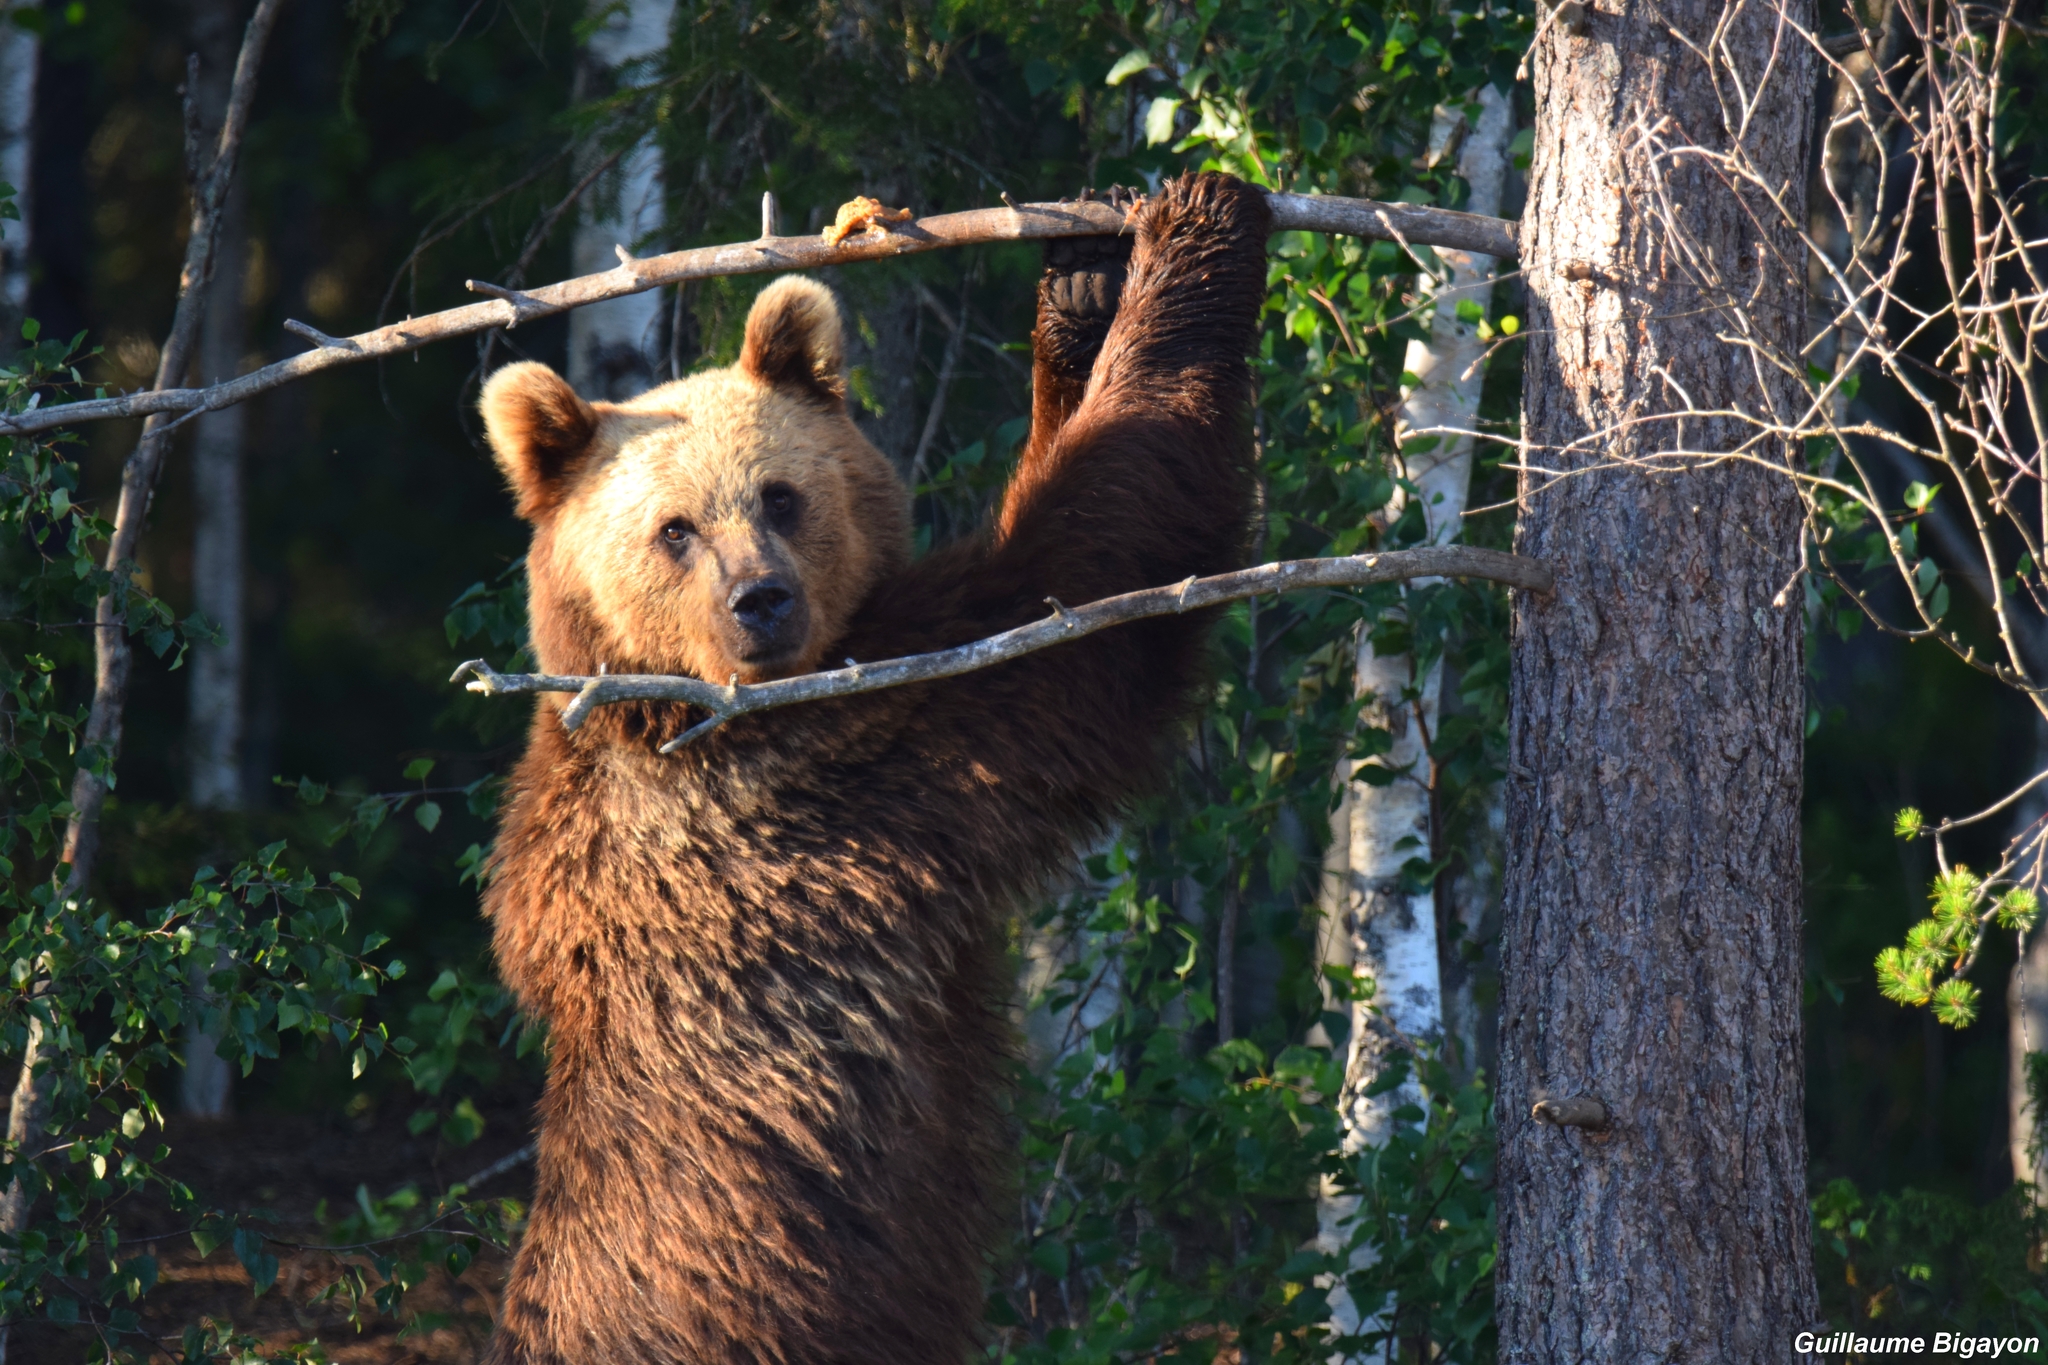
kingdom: Animalia
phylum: Chordata
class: Mammalia
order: Carnivora
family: Ursidae
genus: Ursus
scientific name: Ursus arctos
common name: Brown bear
